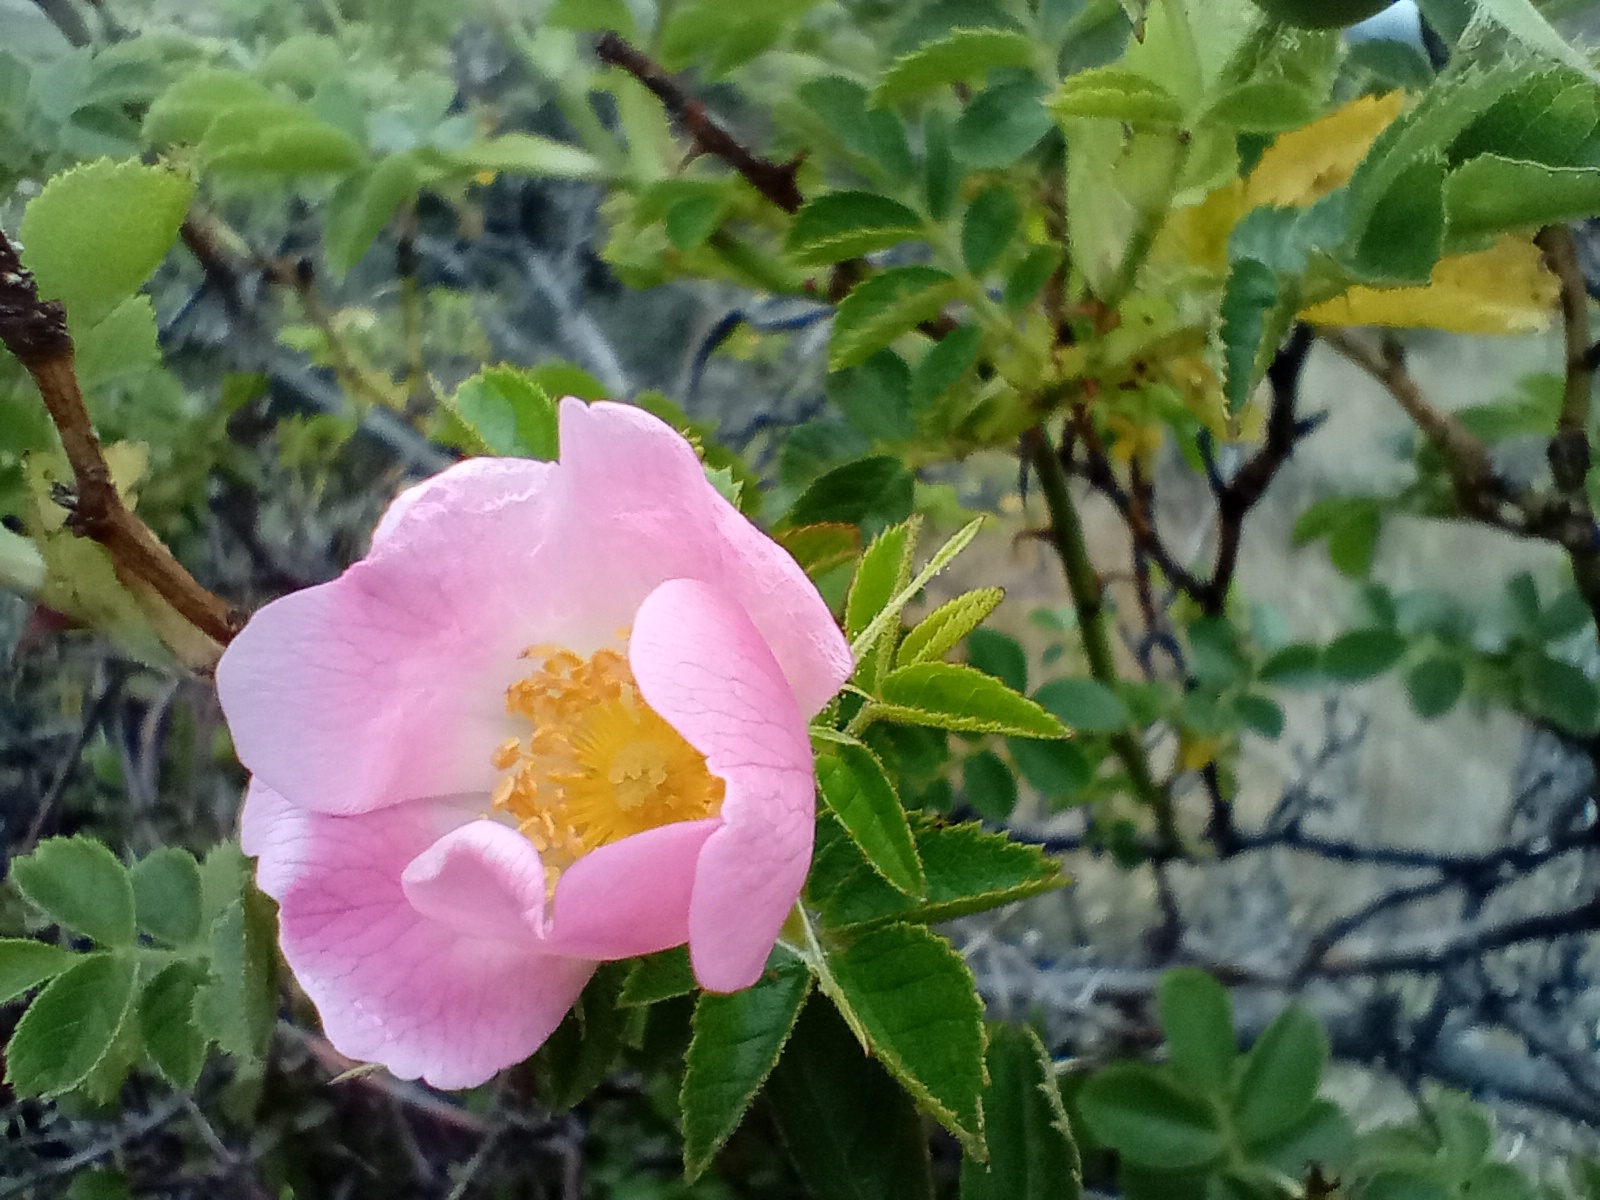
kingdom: Plantae
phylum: Tracheophyta
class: Magnoliopsida
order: Rosales
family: Rosaceae
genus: Rosa
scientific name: Rosa rubiginosa
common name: Sweet-briar
